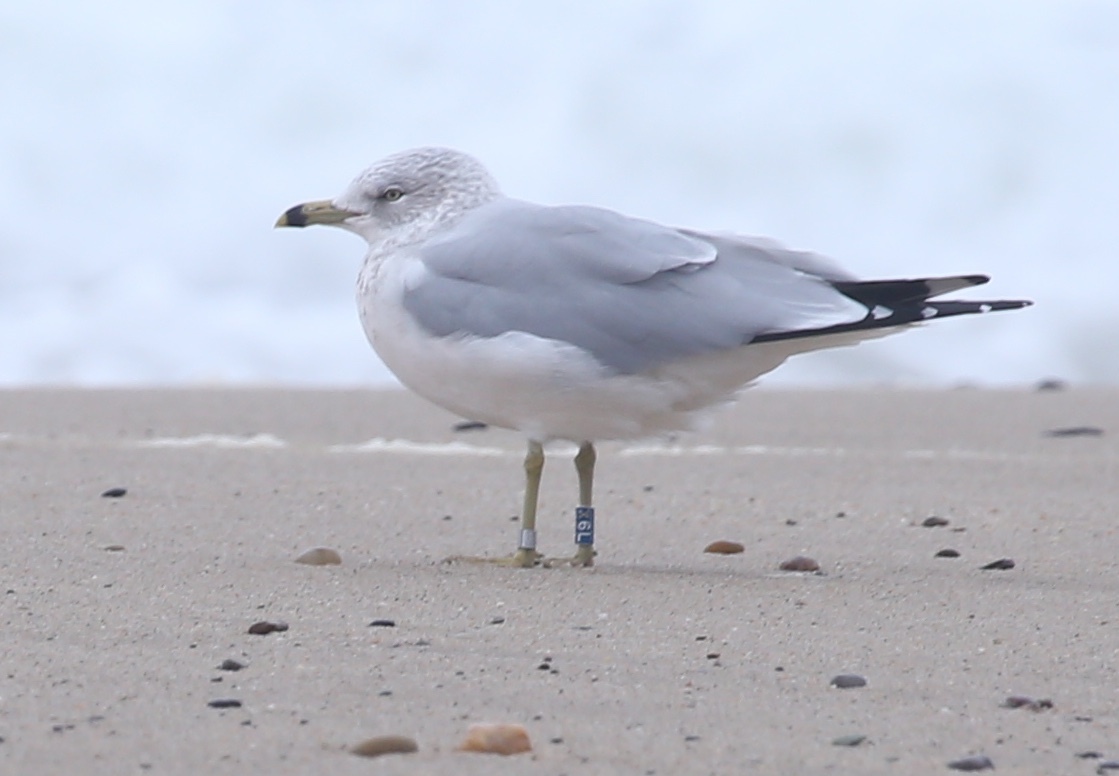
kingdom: Animalia
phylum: Chordata
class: Aves
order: Charadriiformes
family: Laridae
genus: Larus
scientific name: Larus delawarensis
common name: Ring-billed gull
